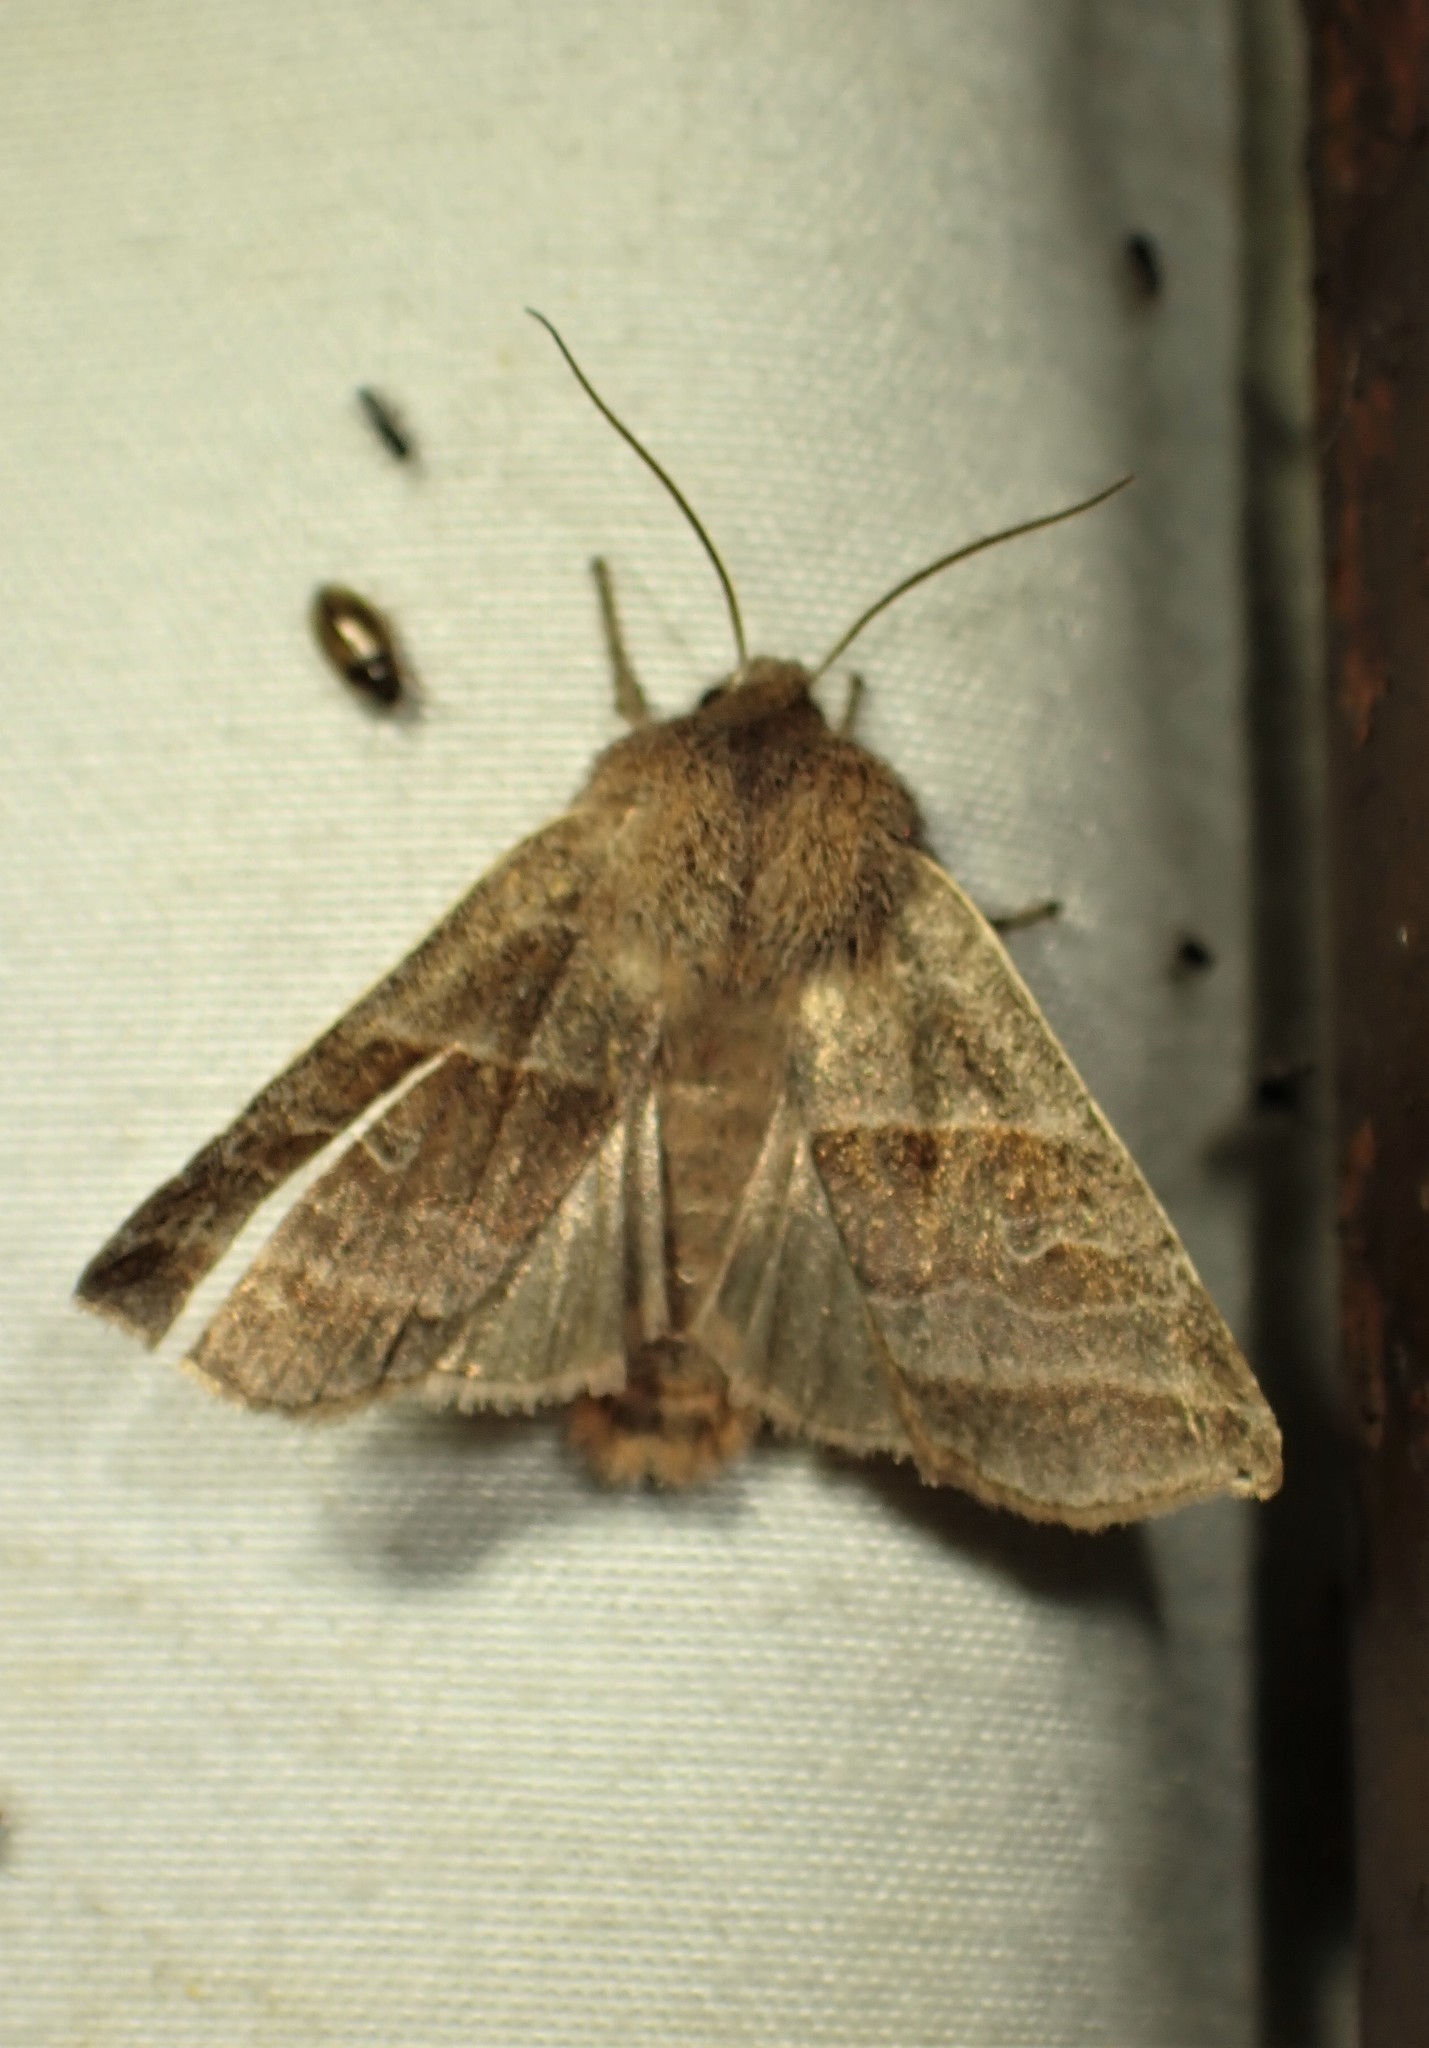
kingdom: Animalia
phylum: Arthropoda
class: Insecta
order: Lepidoptera
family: Noctuidae
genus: Eupsilia
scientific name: Eupsilia devia
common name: Lost sallow
